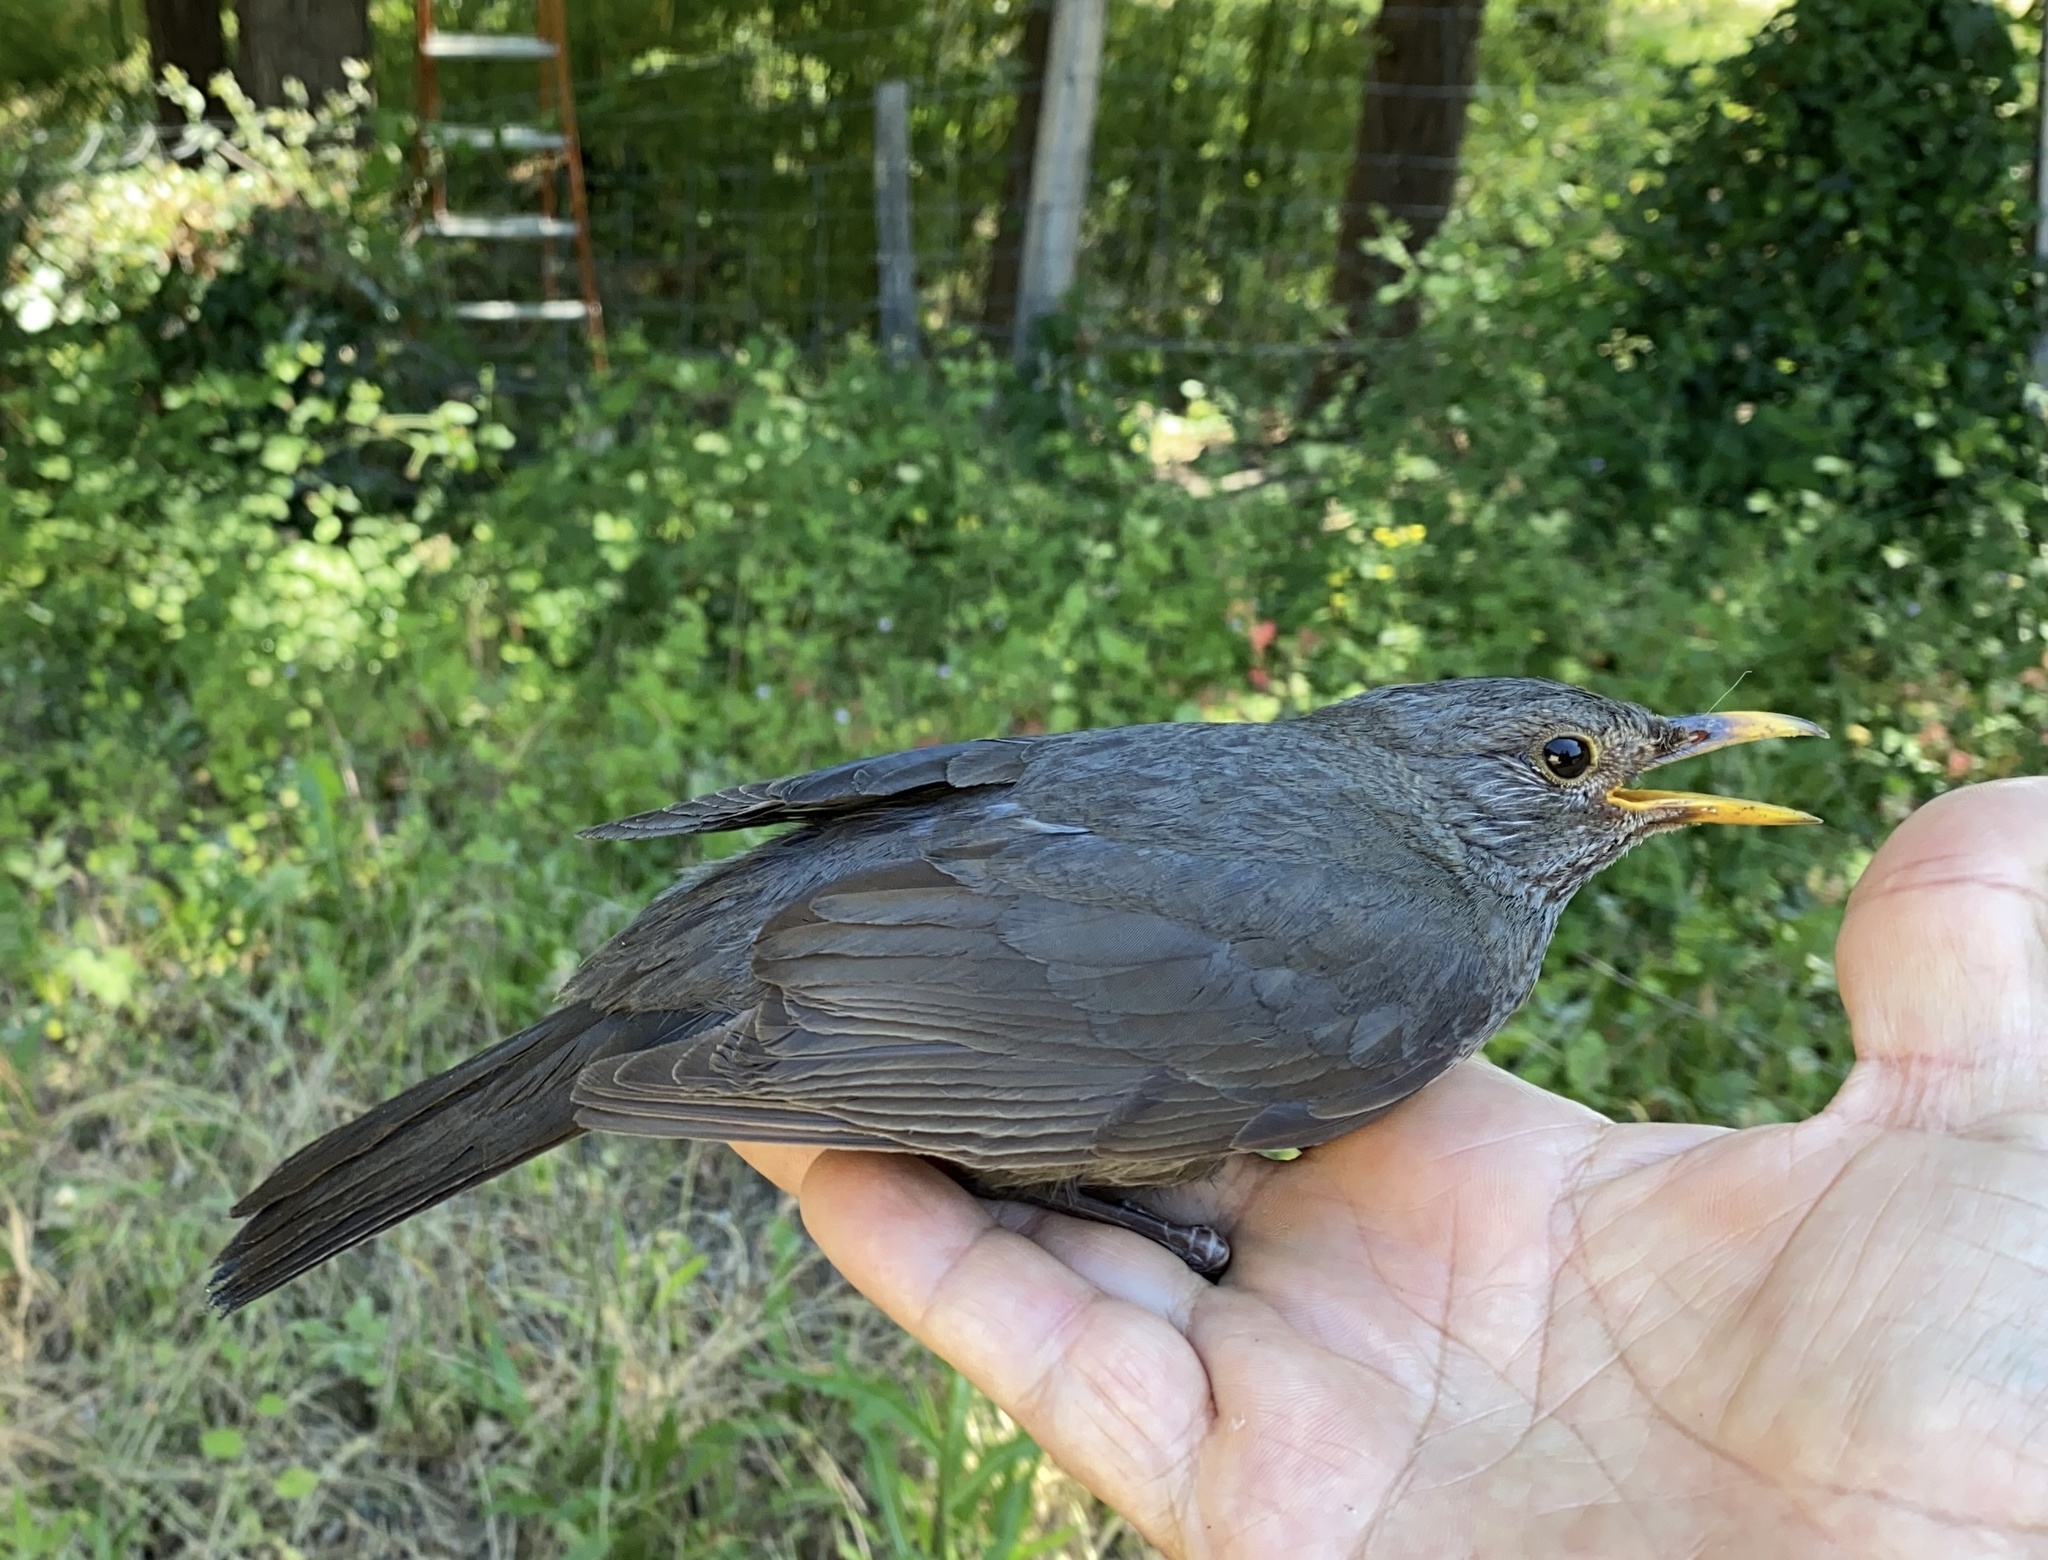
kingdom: Animalia
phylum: Chordata
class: Aves
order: Passeriformes
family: Turdidae
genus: Turdus
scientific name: Turdus merula
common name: Common blackbird
